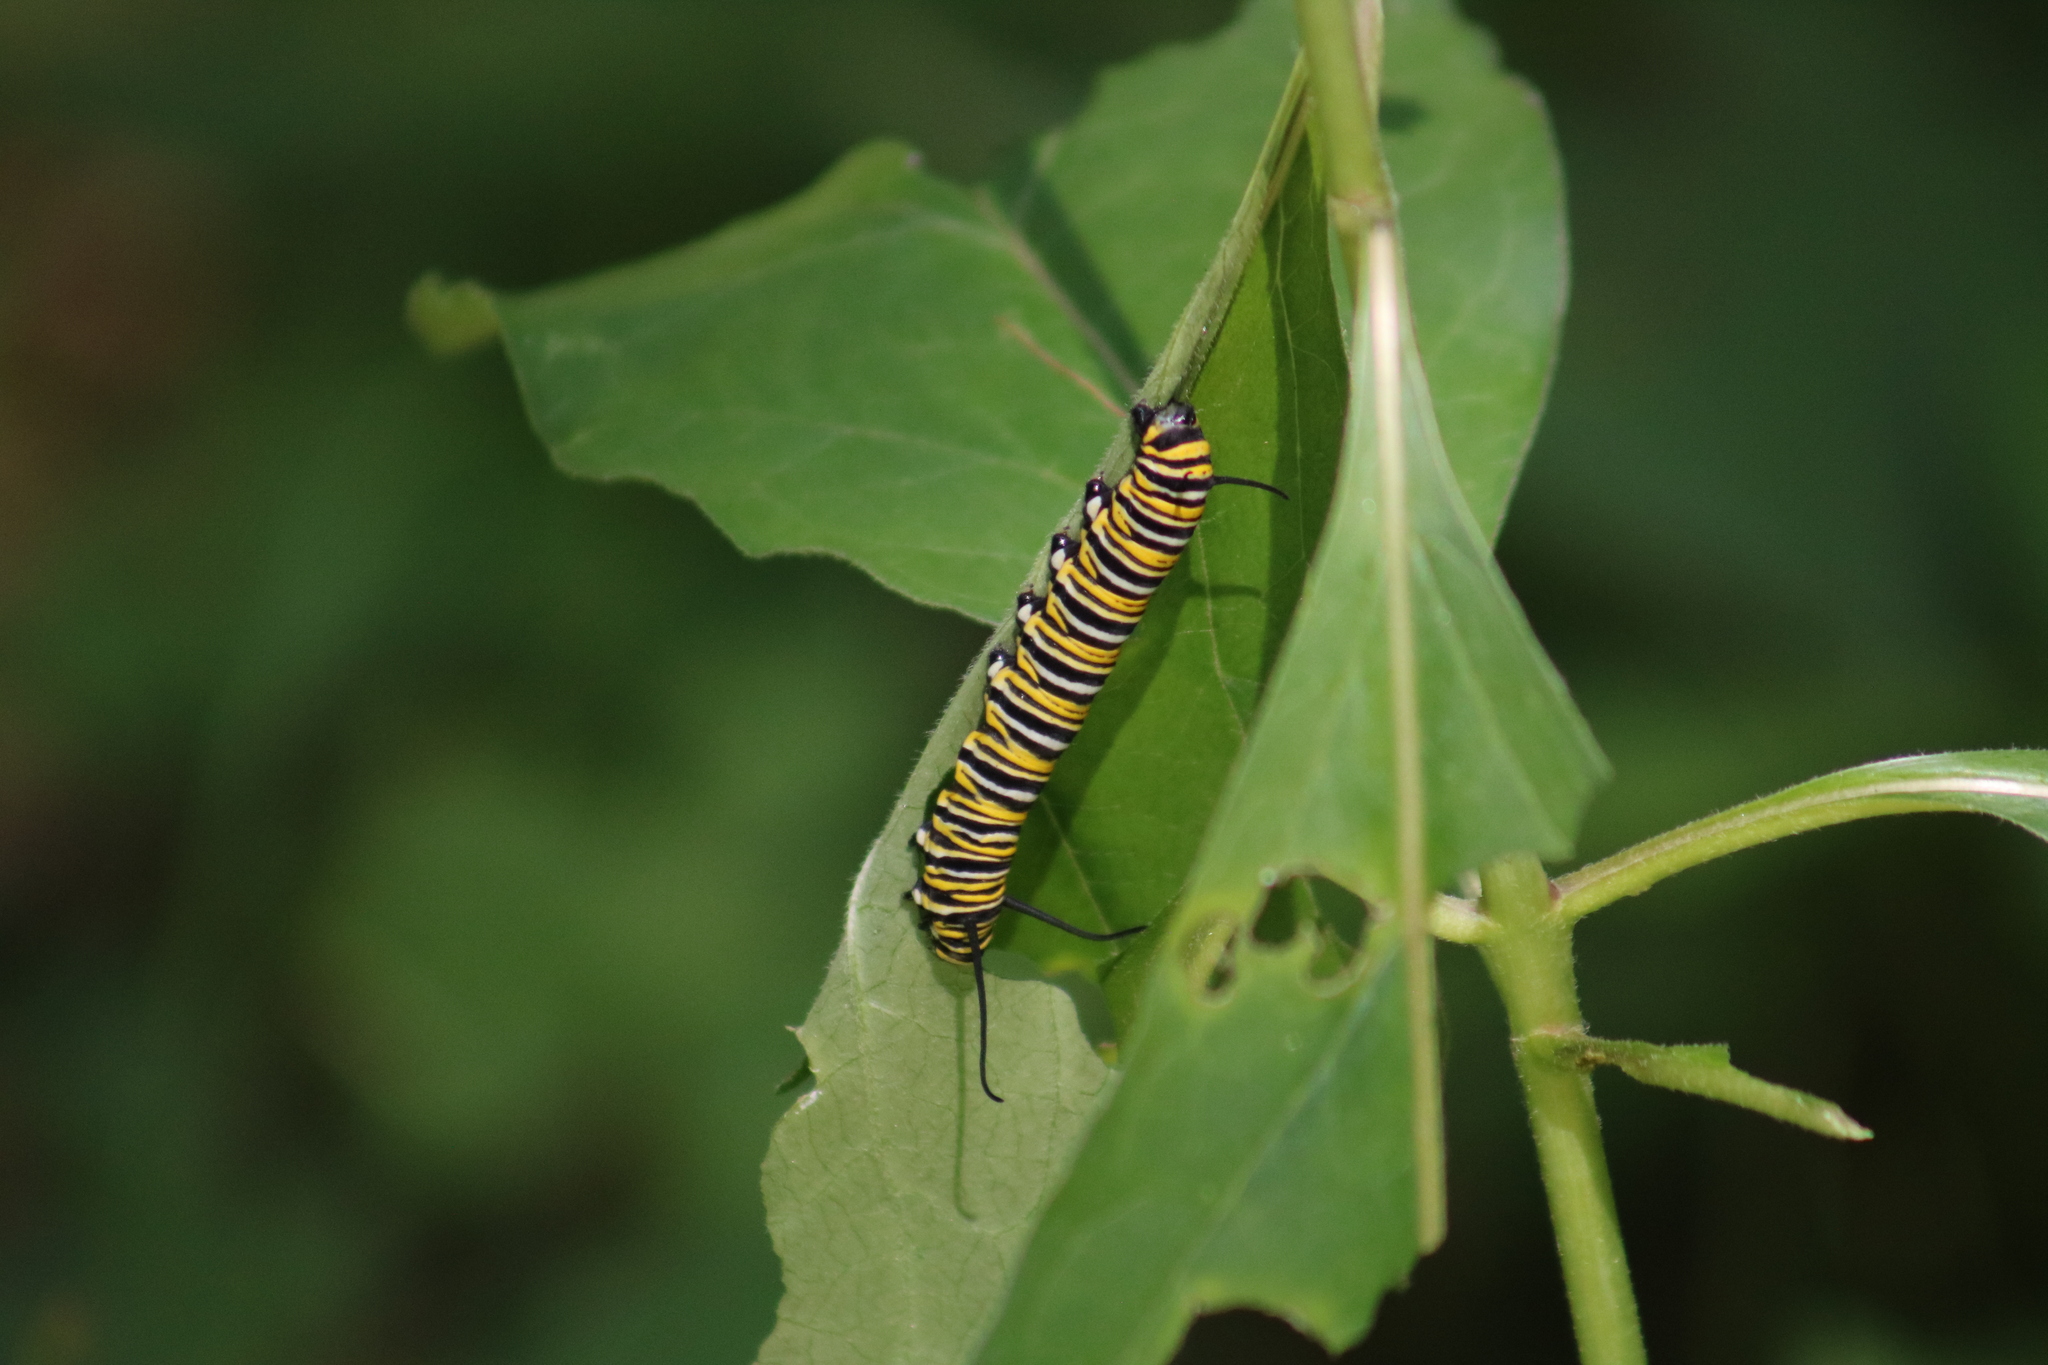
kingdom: Animalia
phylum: Arthropoda
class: Insecta
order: Lepidoptera
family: Nymphalidae
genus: Danaus
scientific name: Danaus plexippus
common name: Monarch
